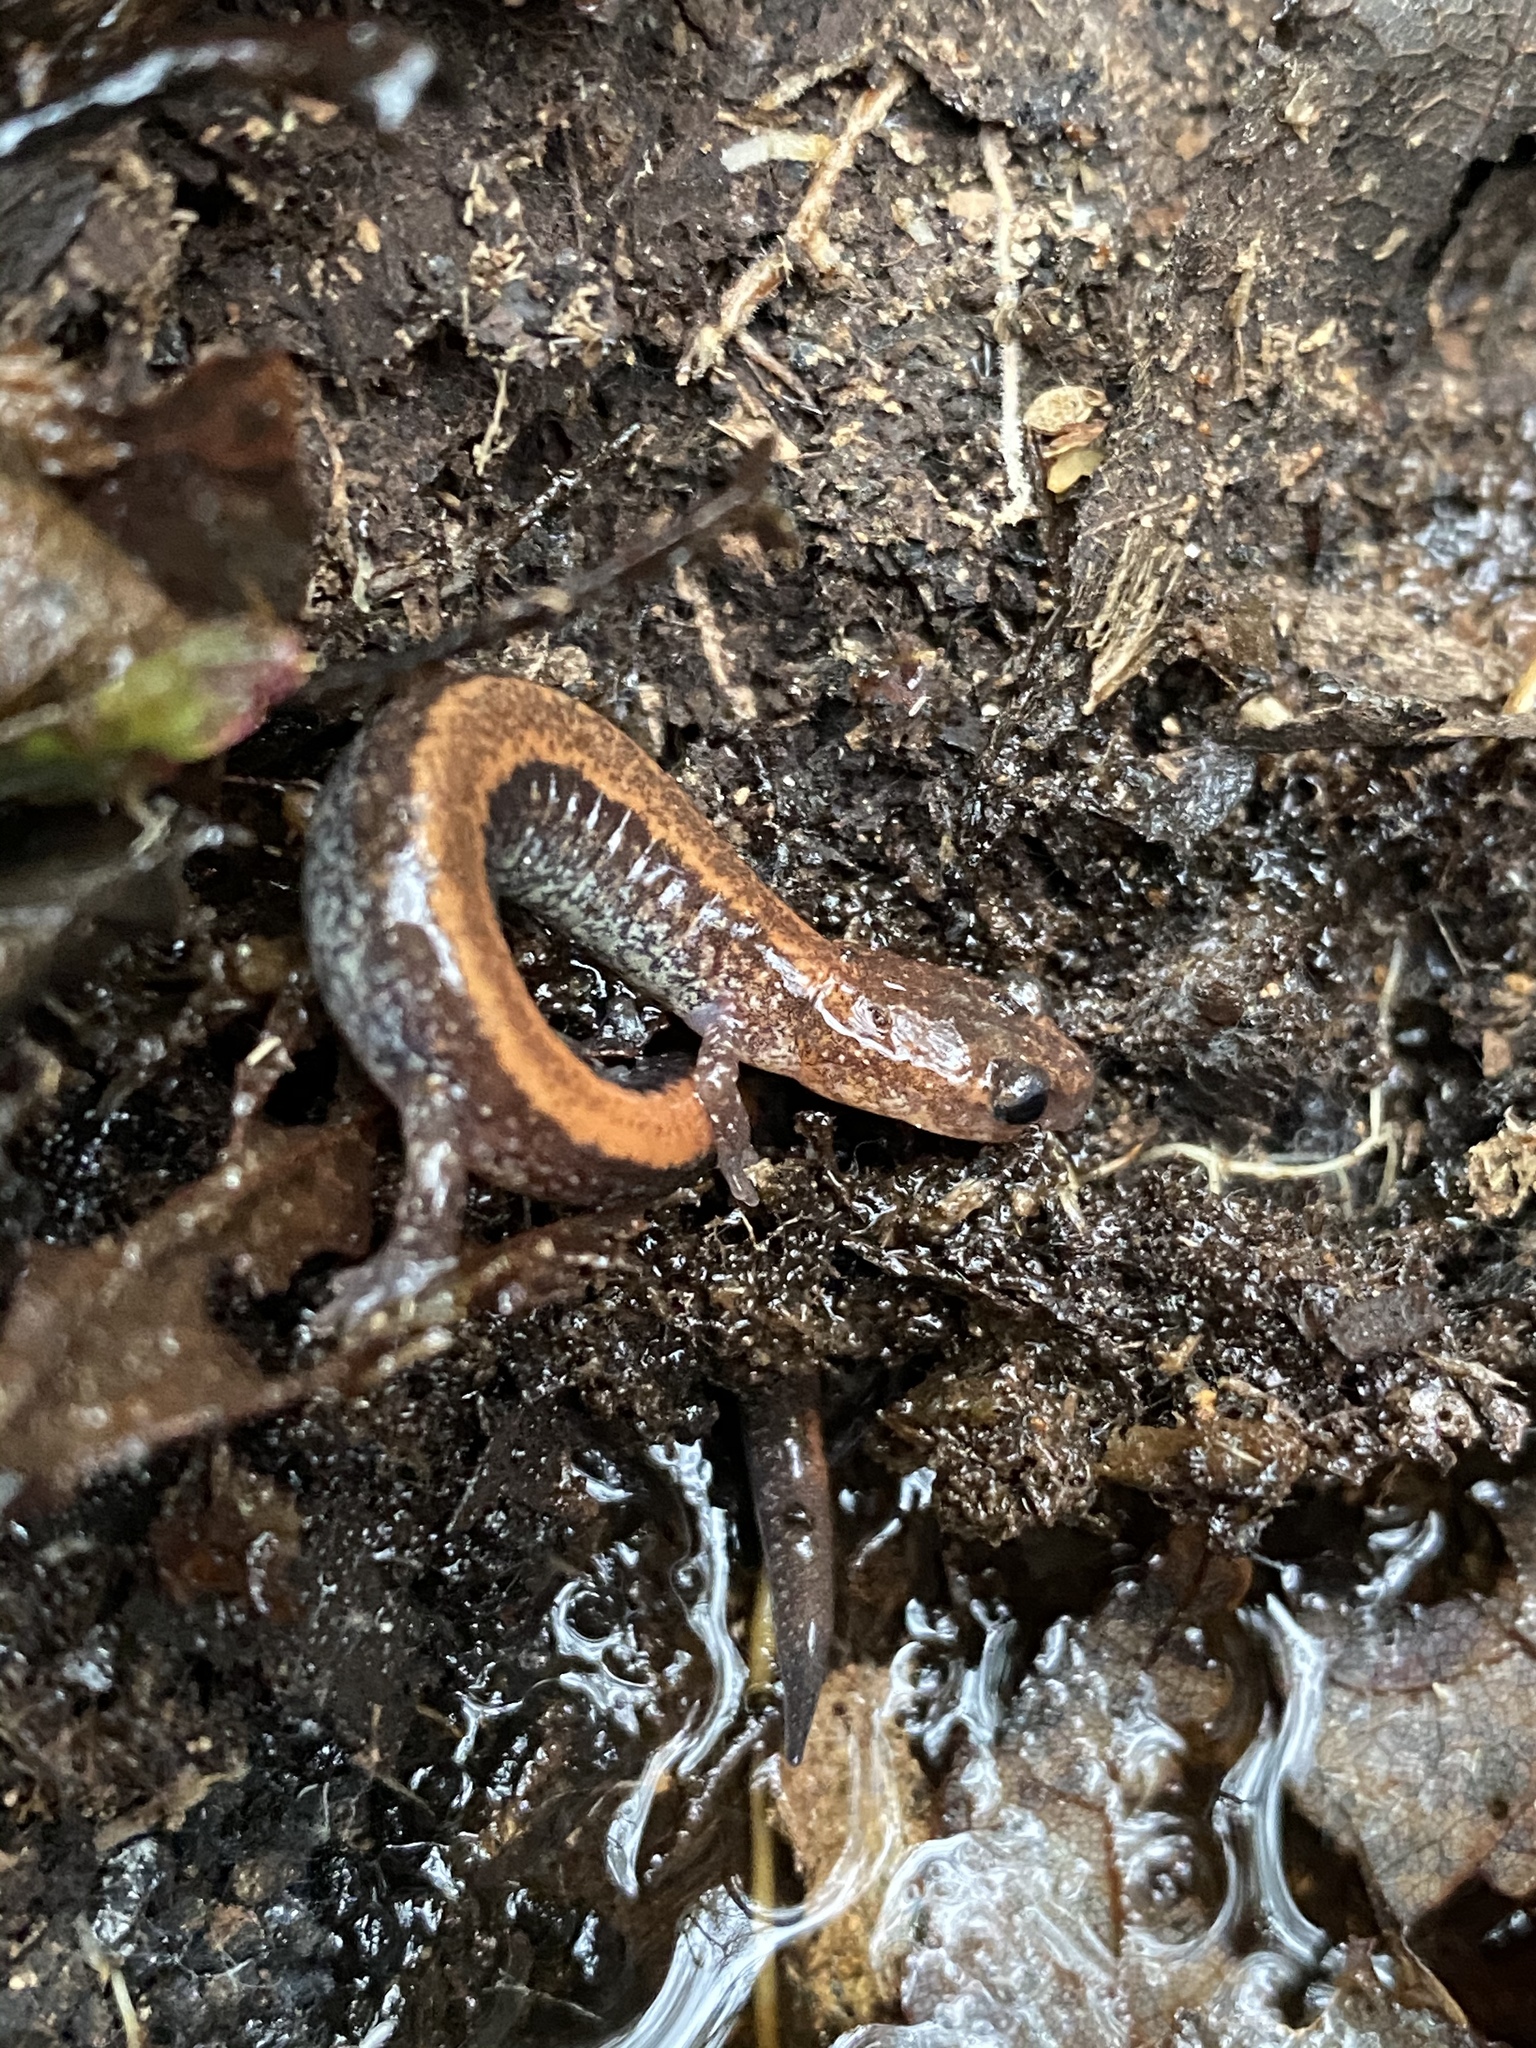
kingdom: Animalia
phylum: Chordata
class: Amphibia
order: Caudata
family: Plethodontidae
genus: Plethodon
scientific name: Plethodon cinereus
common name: Redback salamander
